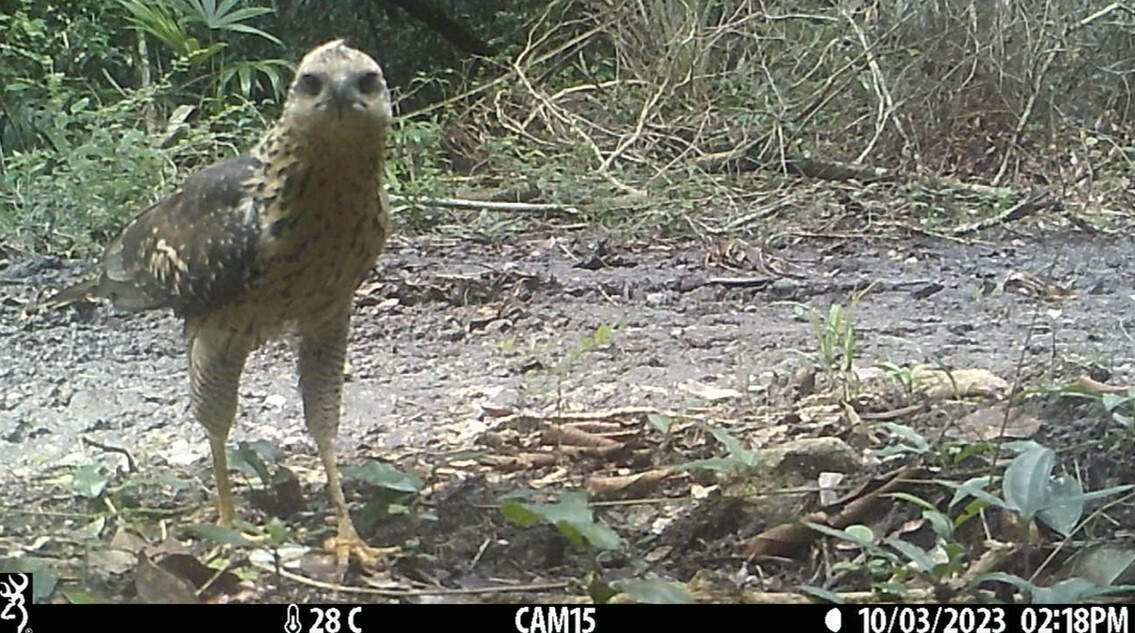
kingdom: Animalia
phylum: Chordata
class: Aves
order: Accipitriformes
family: Accipitridae
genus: Buteogallus
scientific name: Buteogallus urubitinga
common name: Great black hawk
